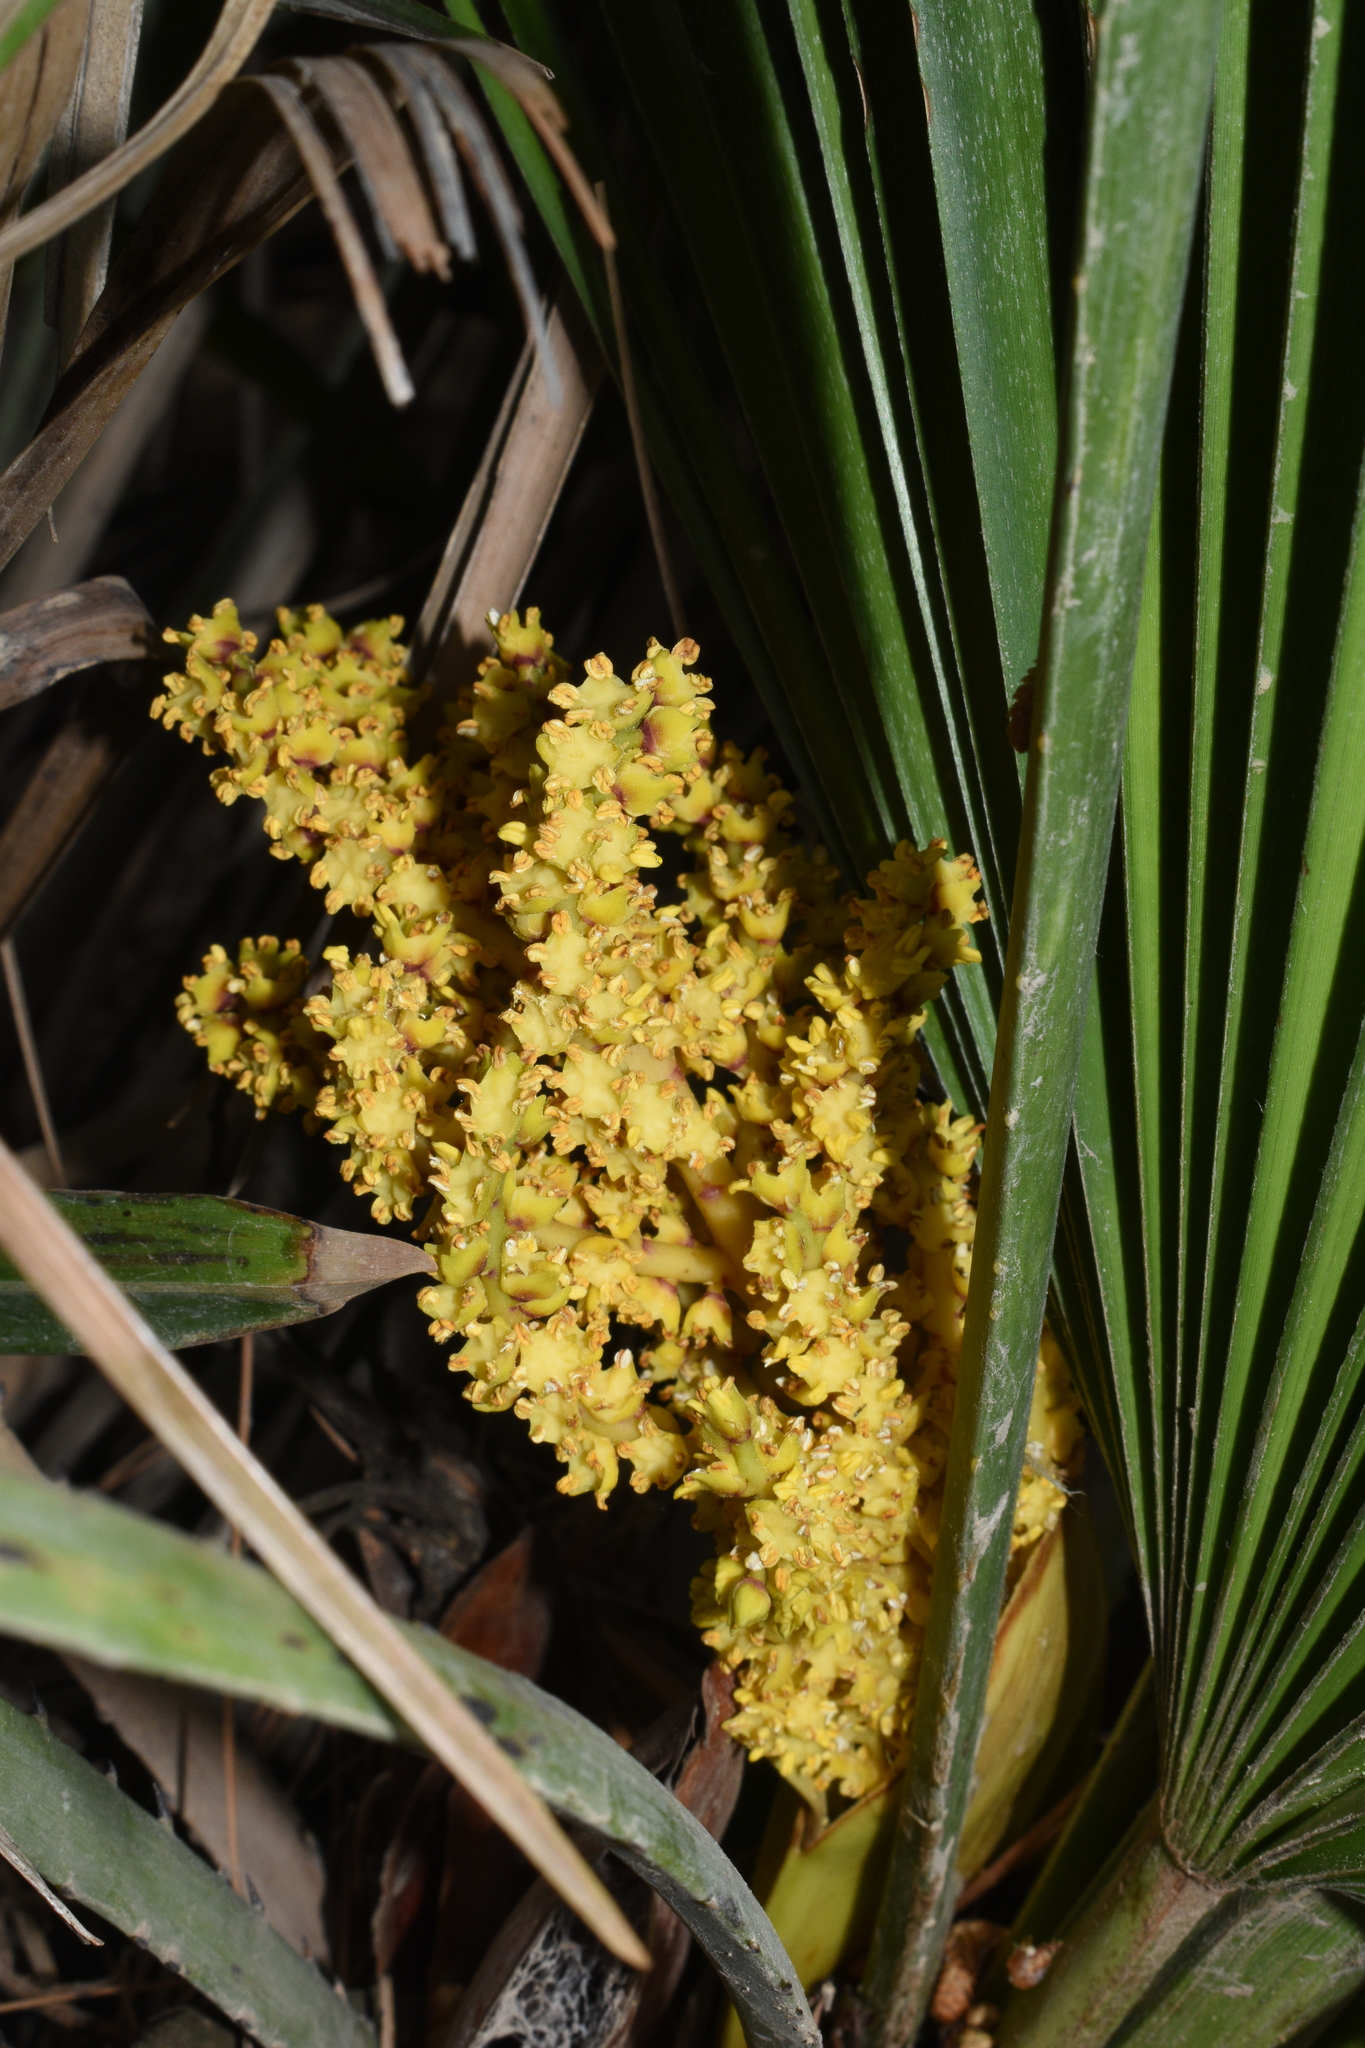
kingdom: Plantae
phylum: Tracheophyta
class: Liliopsida
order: Arecales
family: Arecaceae
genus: Chamaerops
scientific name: Chamaerops humilis
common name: Dwarf fan palm
